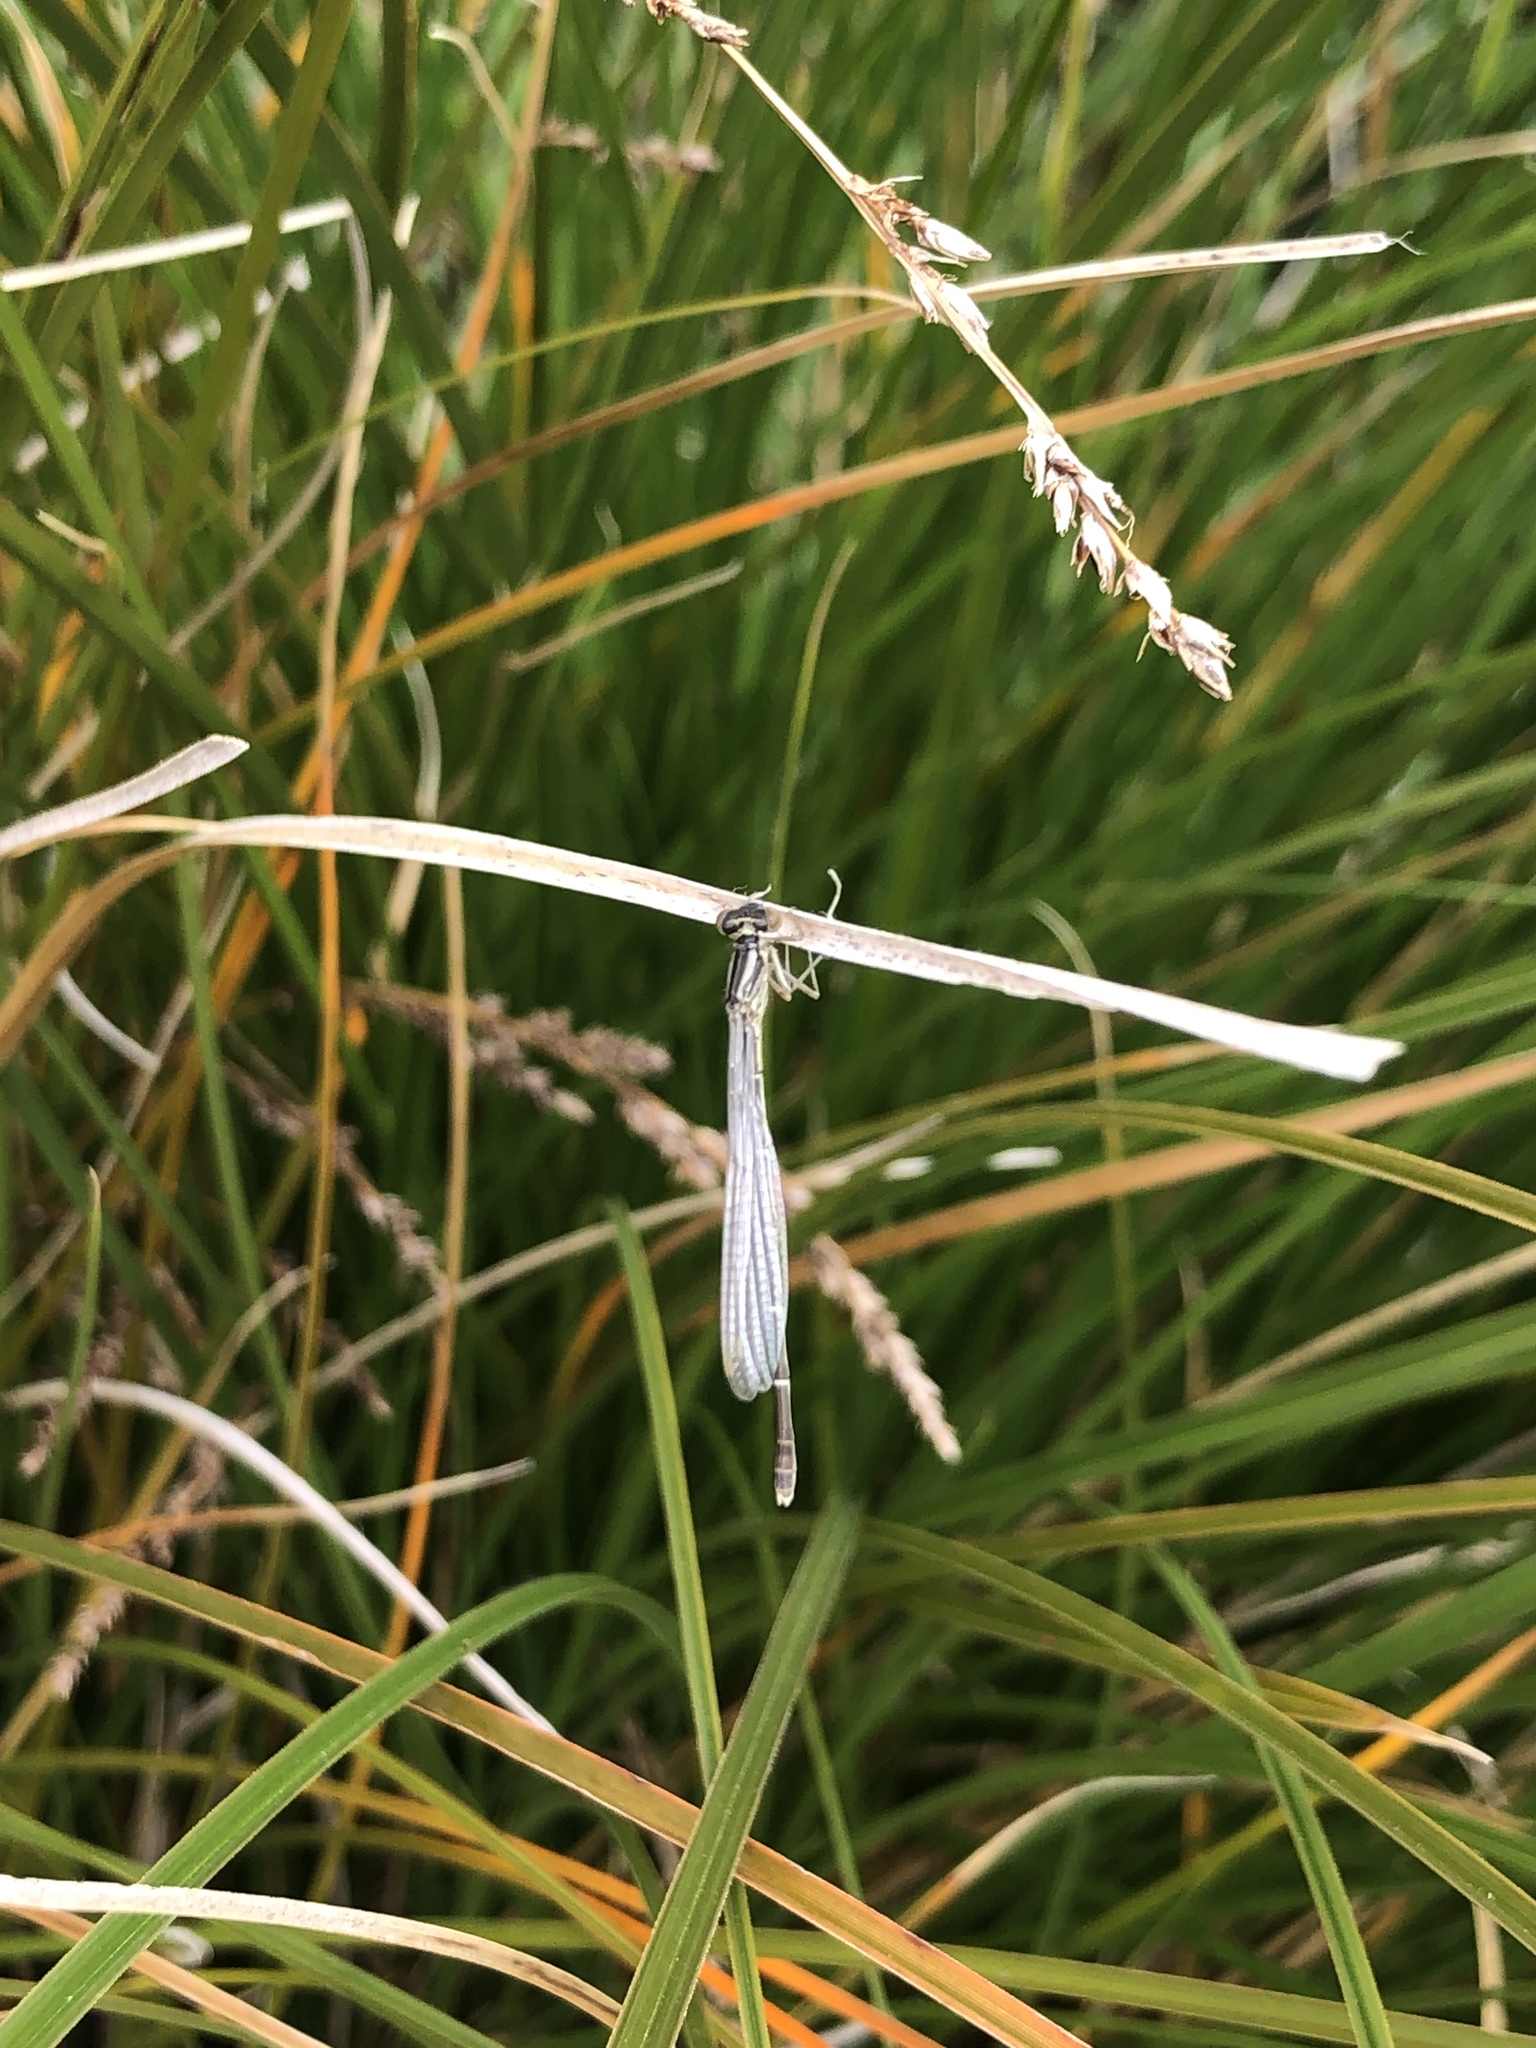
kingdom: Animalia
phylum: Arthropoda
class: Insecta
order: Odonata
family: Coenagrionidae
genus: Xanthocnemis
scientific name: Xanthocnemis zealandica
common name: Common redcoat damselfly
